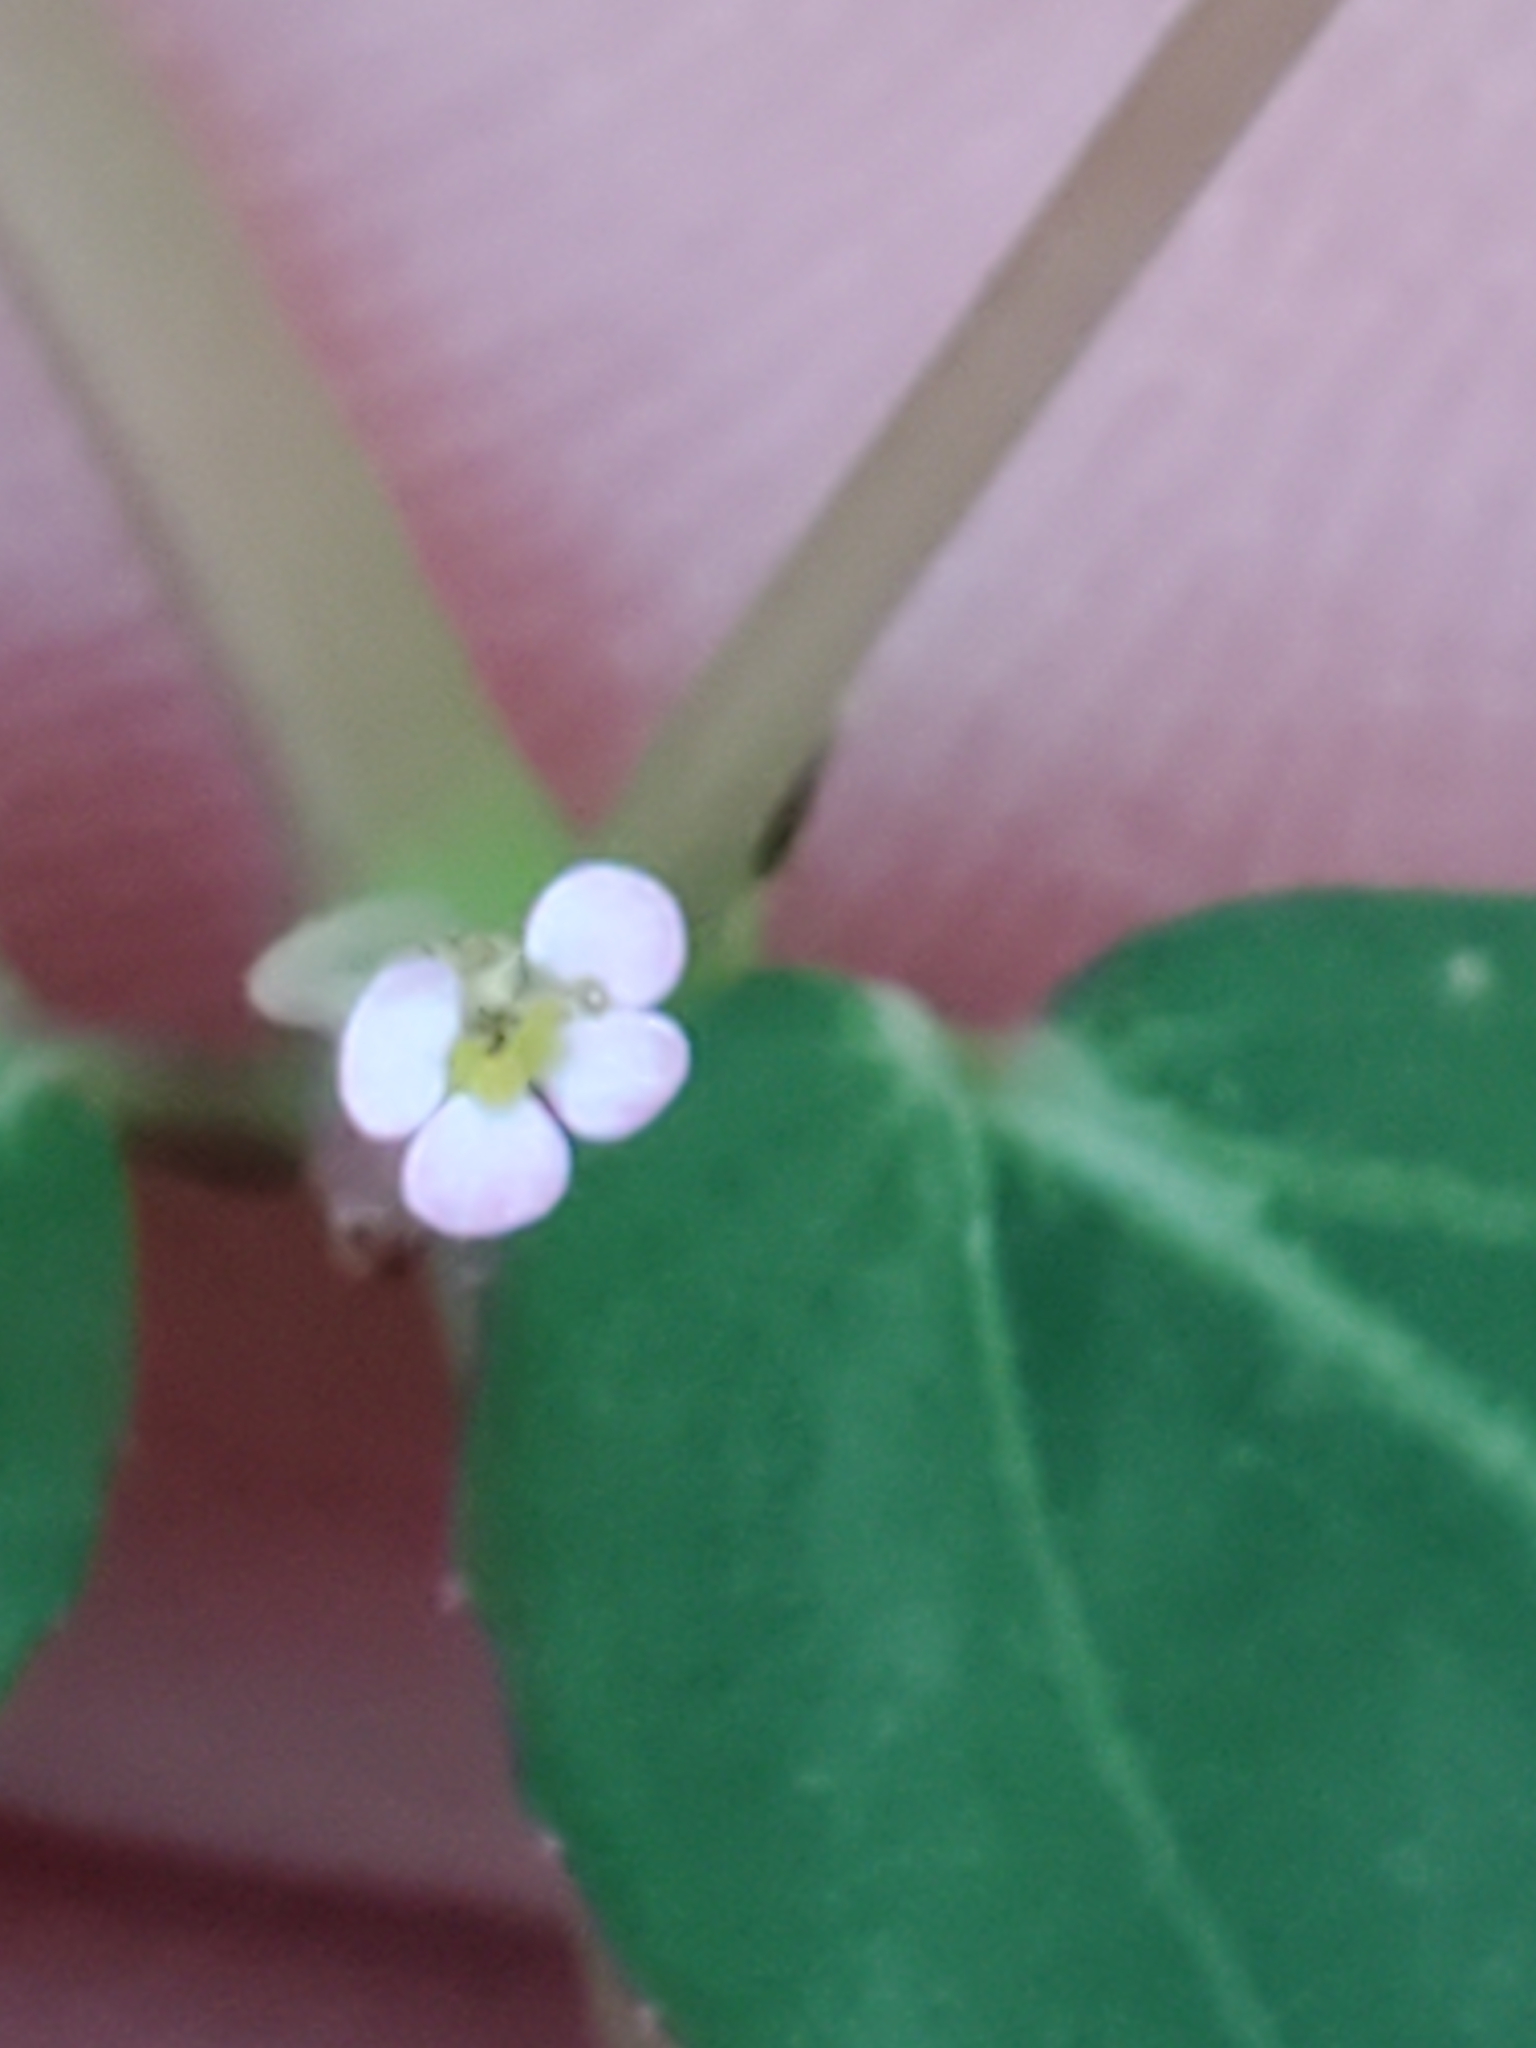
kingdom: Plantae
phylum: Tracheophyta
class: Magnoliopsida
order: Malpighiales
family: Euphorbiaceae
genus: Euphorbia
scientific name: Euphorbia hypericifolia
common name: Graceful sandmat
